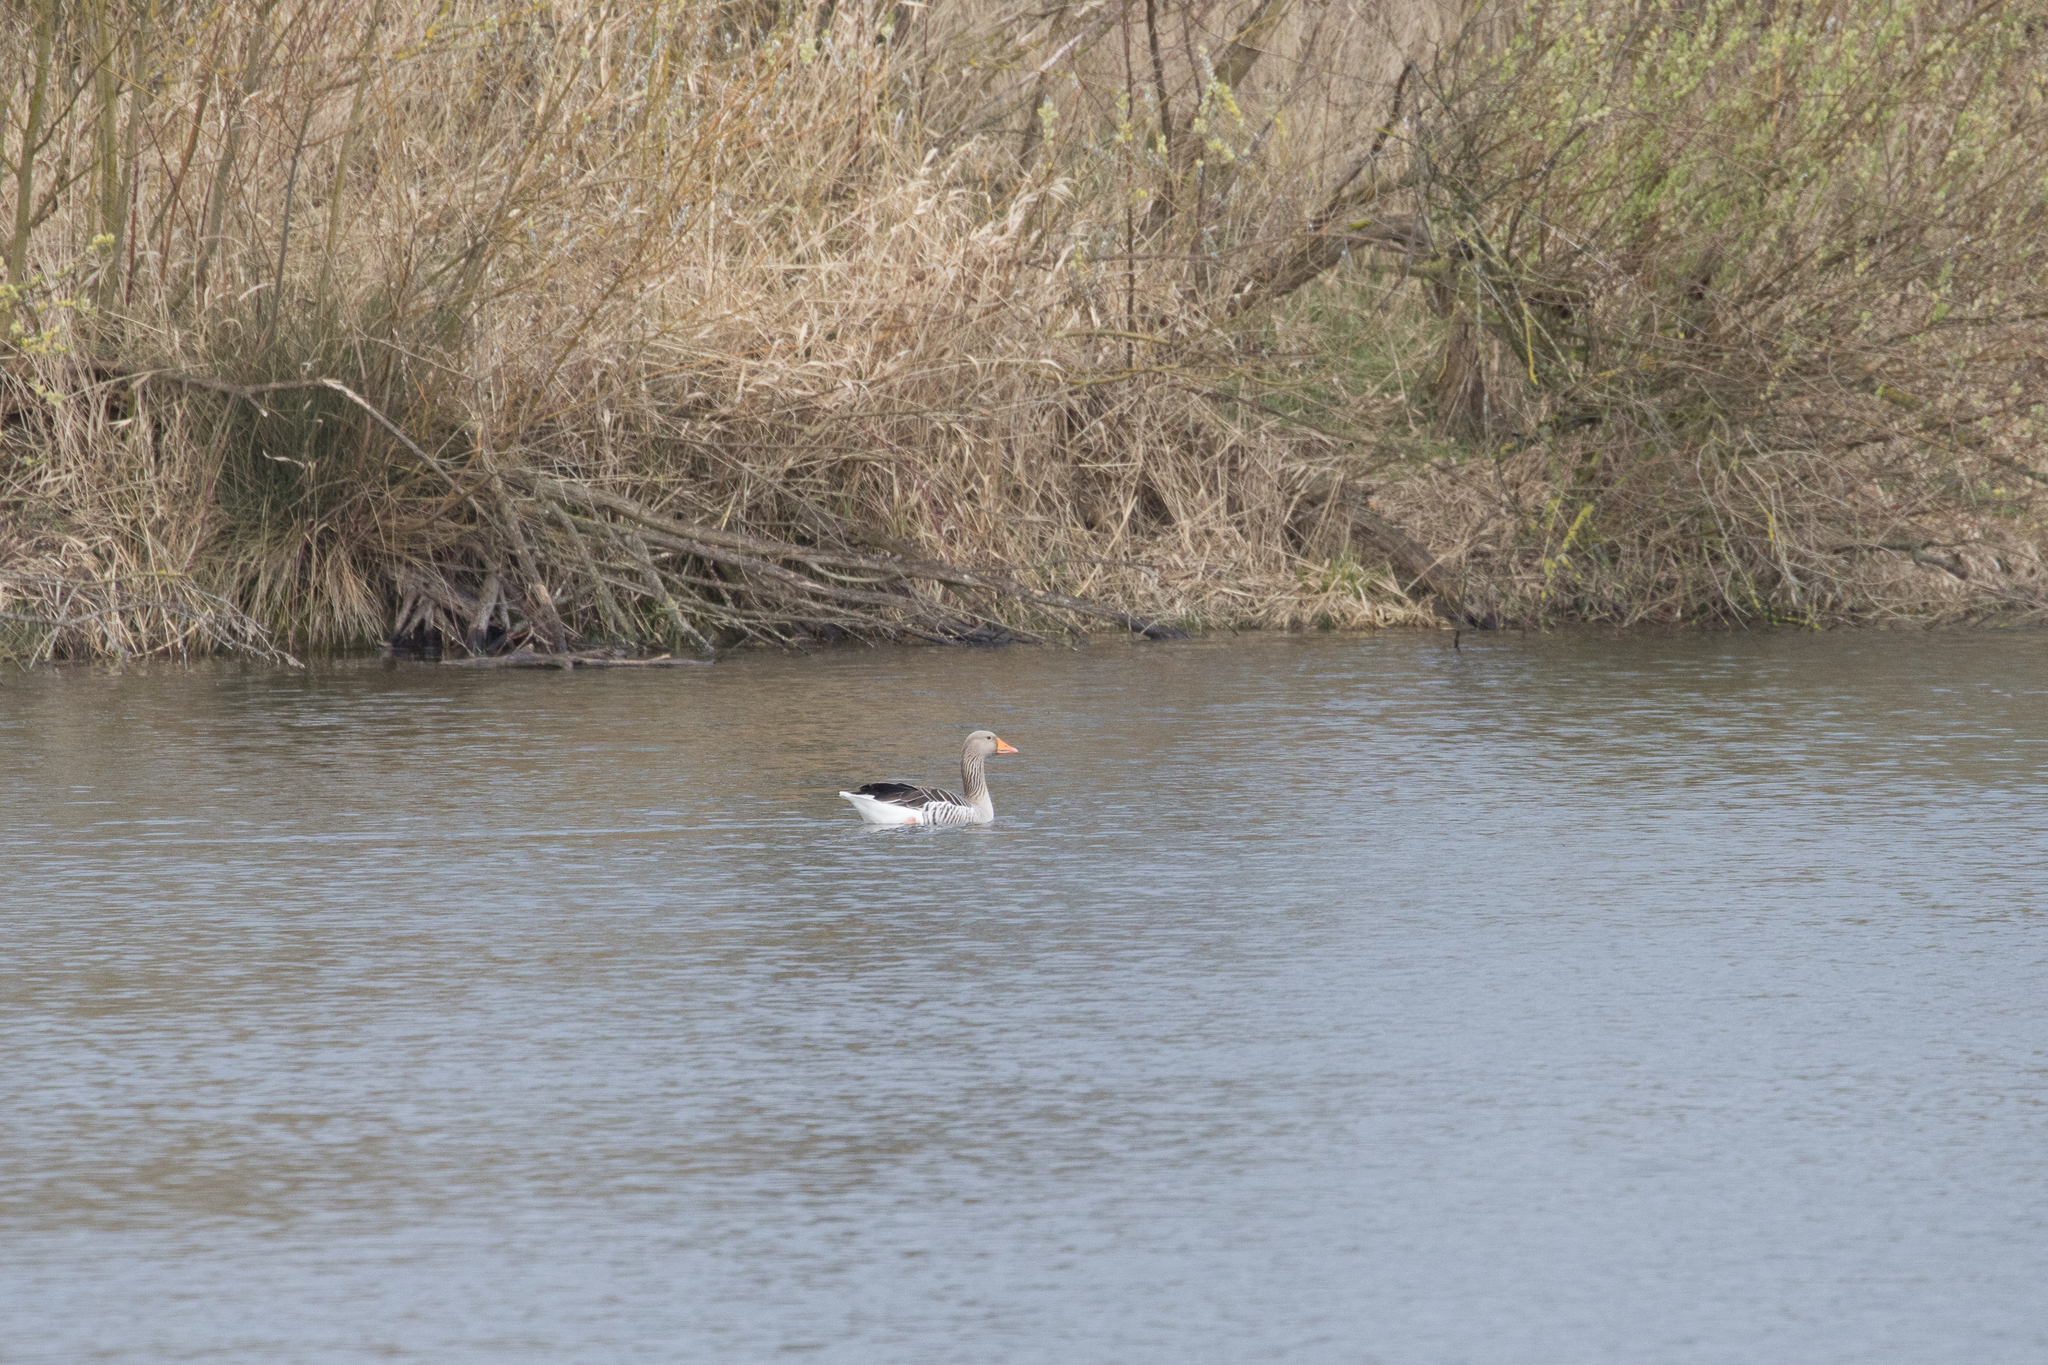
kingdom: Animalia
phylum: Chordata
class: Aves
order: Anseriformes
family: Anatidae
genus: Anser
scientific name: Anser anser
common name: Greylag goose
